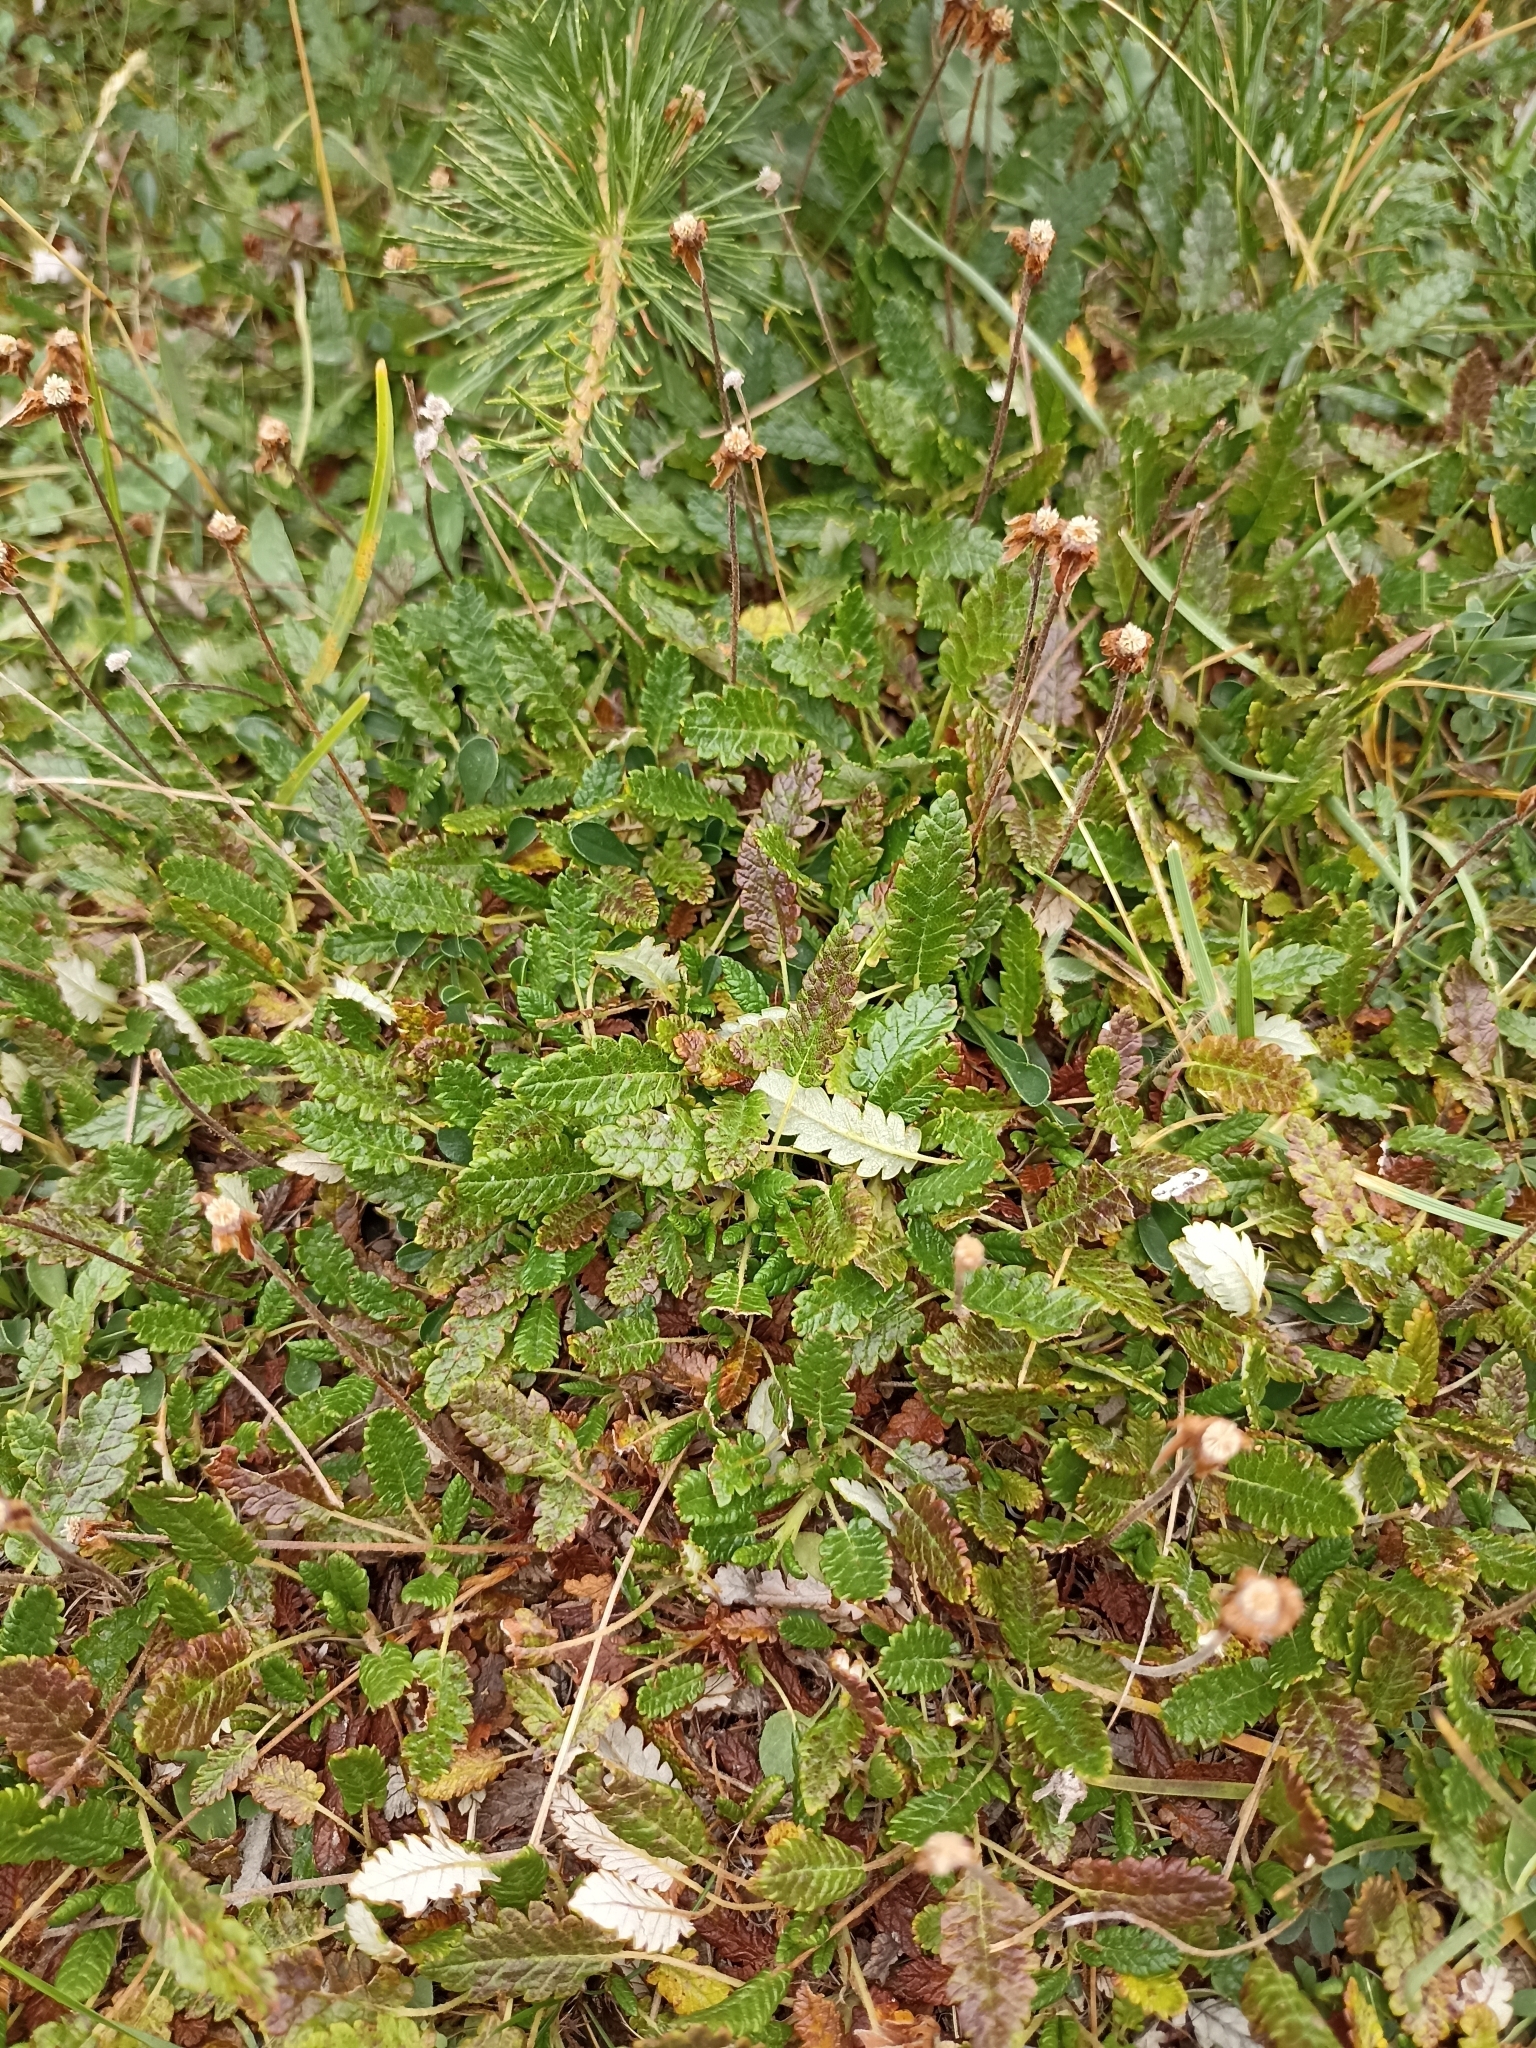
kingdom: Plantae
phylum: Tracheophyta
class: Magnoliopsida
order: Rosales
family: Rosaceae
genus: Dryas
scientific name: Dryas octopetala
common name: Eight-petal mountain-avens
